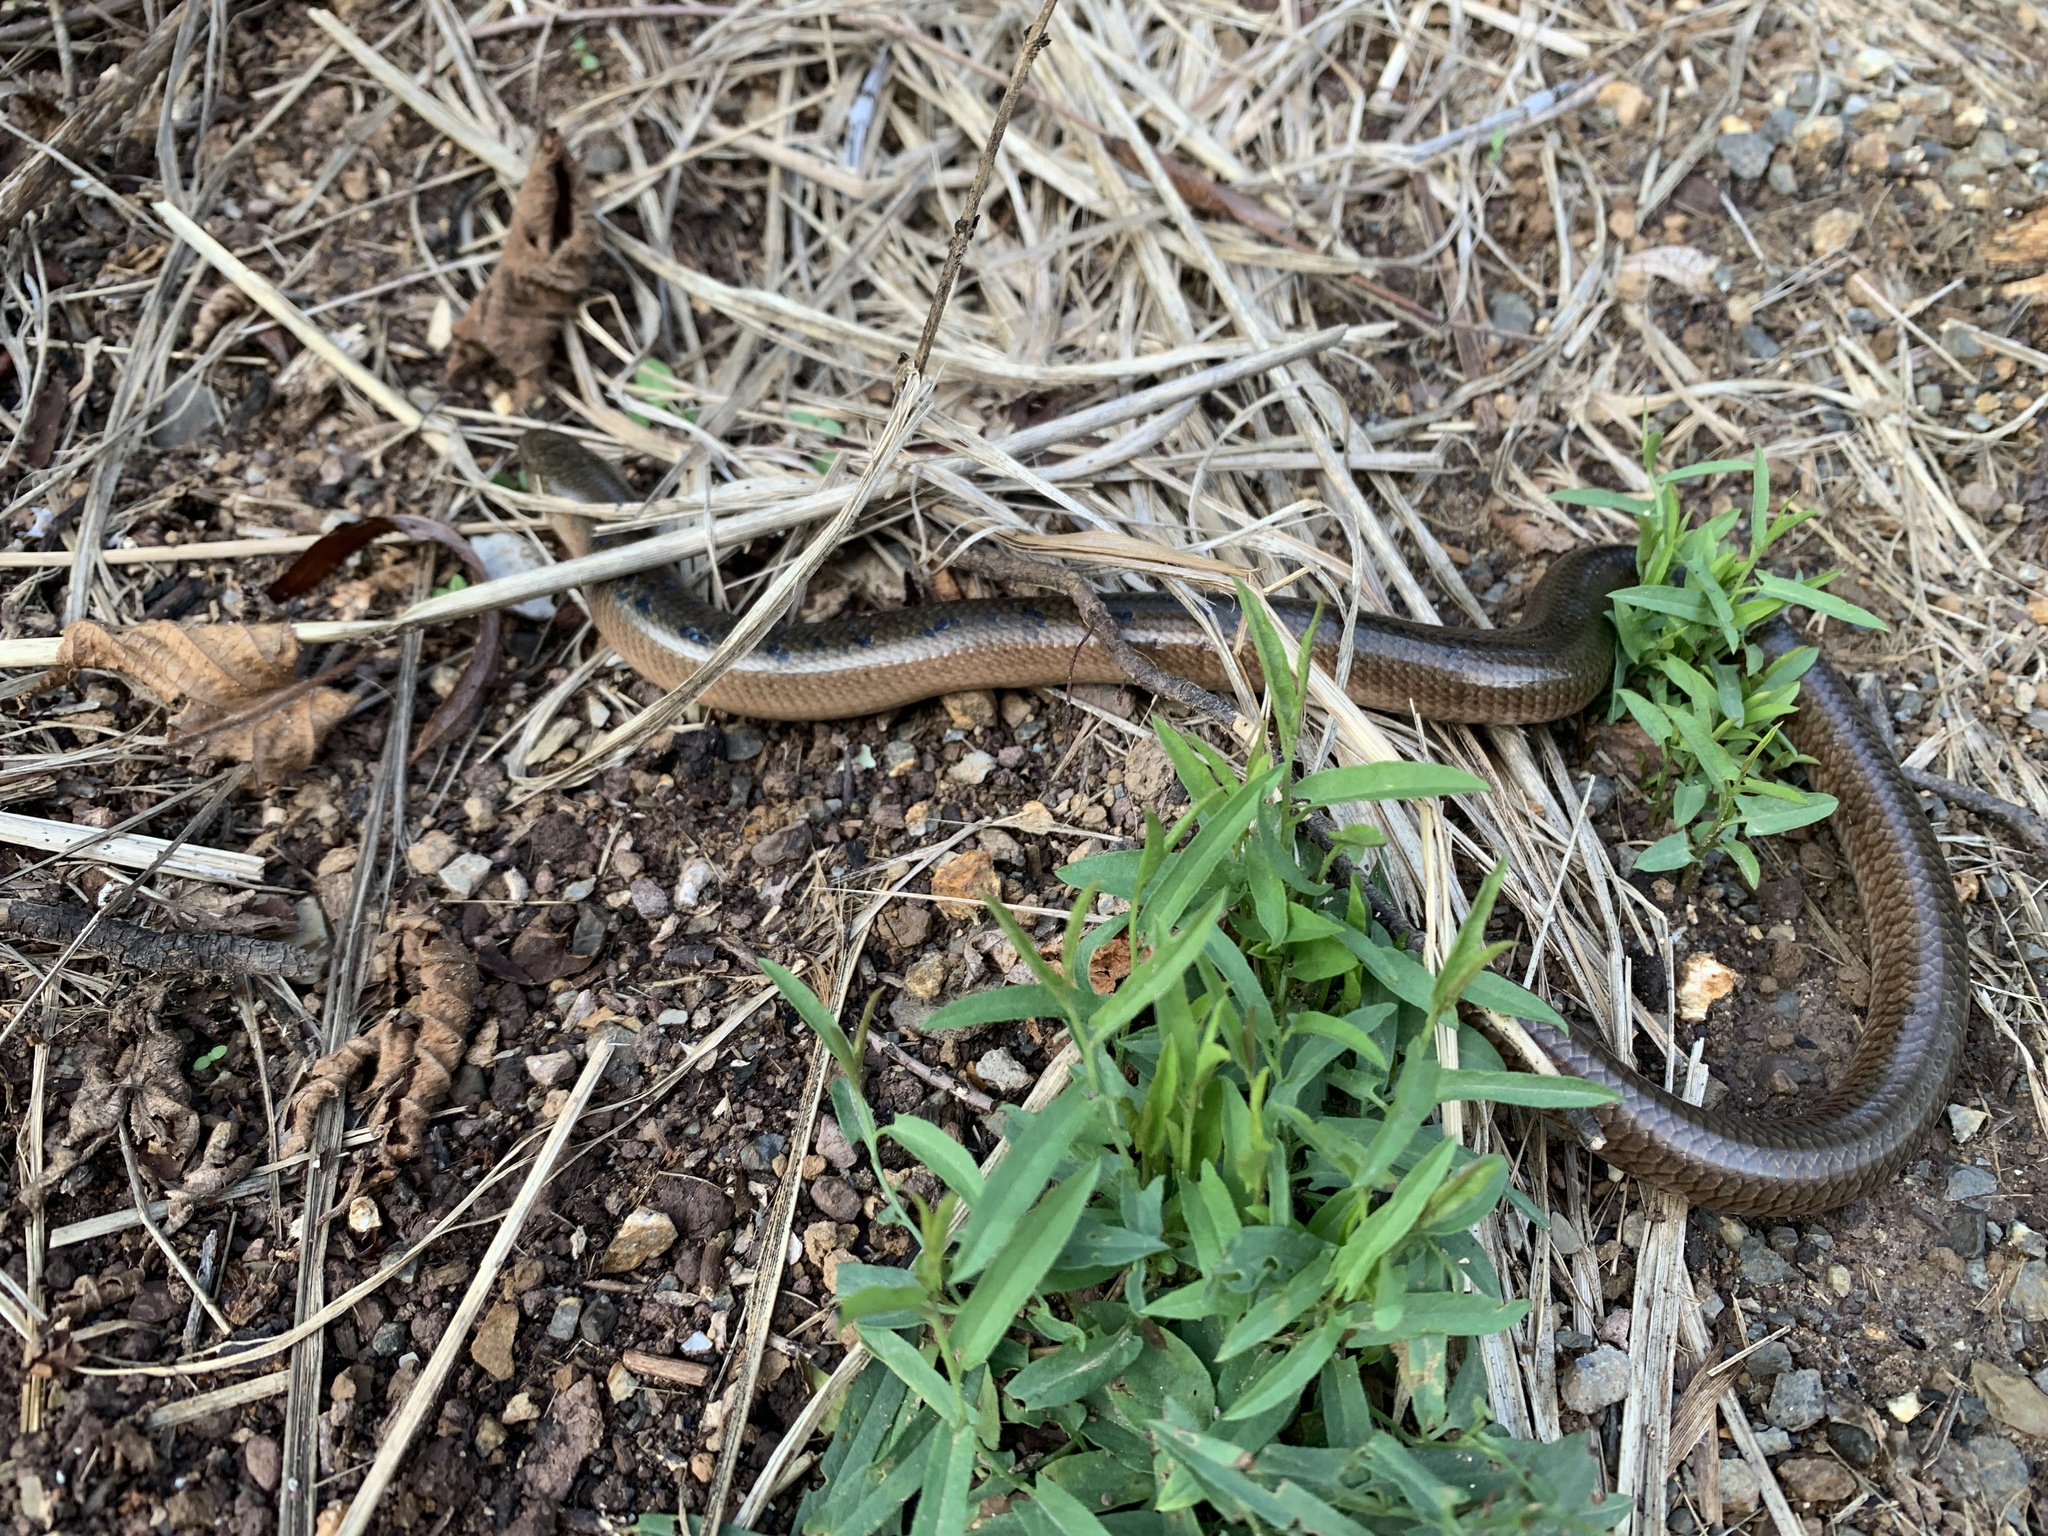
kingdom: Animalia
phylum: Chordata
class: Squamata
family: Anguidae
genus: Anguis
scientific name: Anguis colchica
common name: Slow worm
